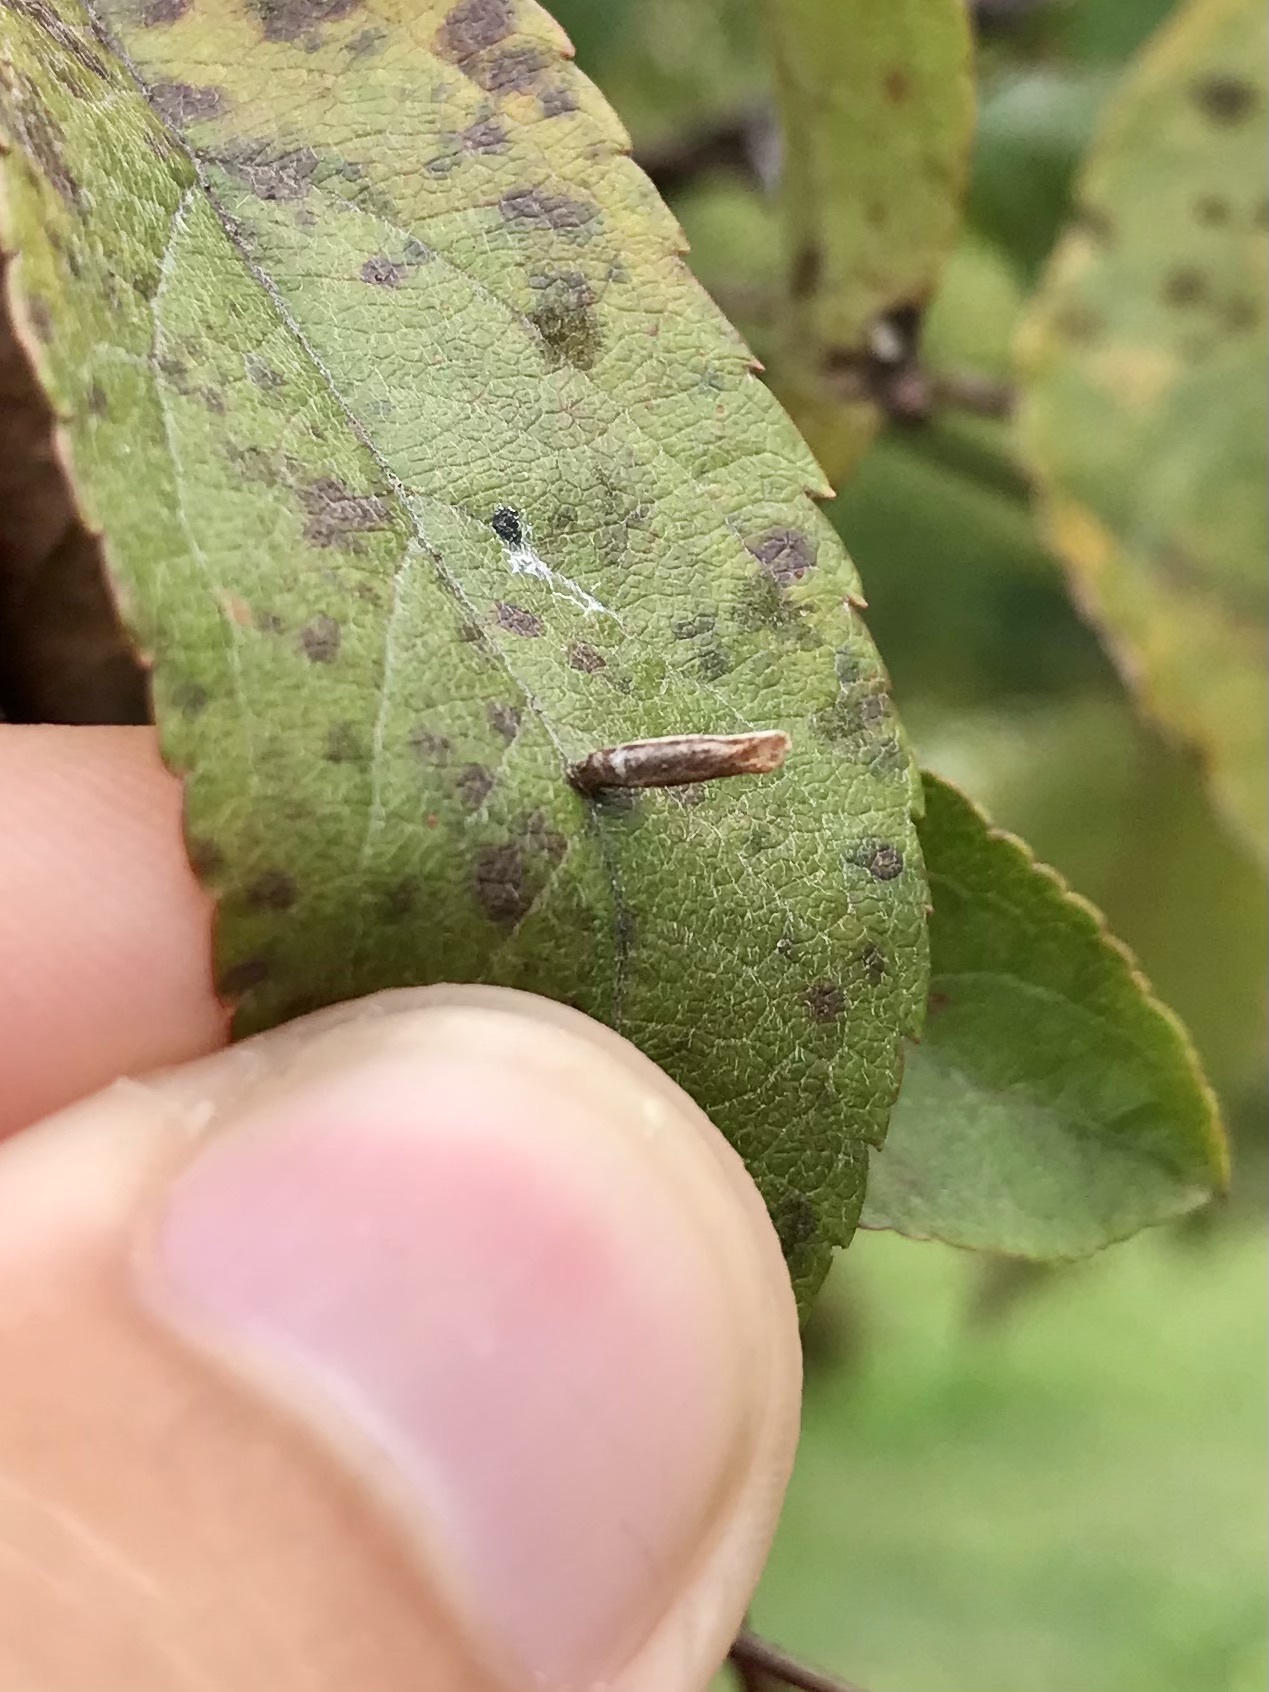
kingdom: Animalia
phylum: Arthropoda
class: Insecta
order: Lepidoptera
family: Coleophoridae
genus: Coleophora
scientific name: Coleophora spinella
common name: Apple & plum case-bearer
